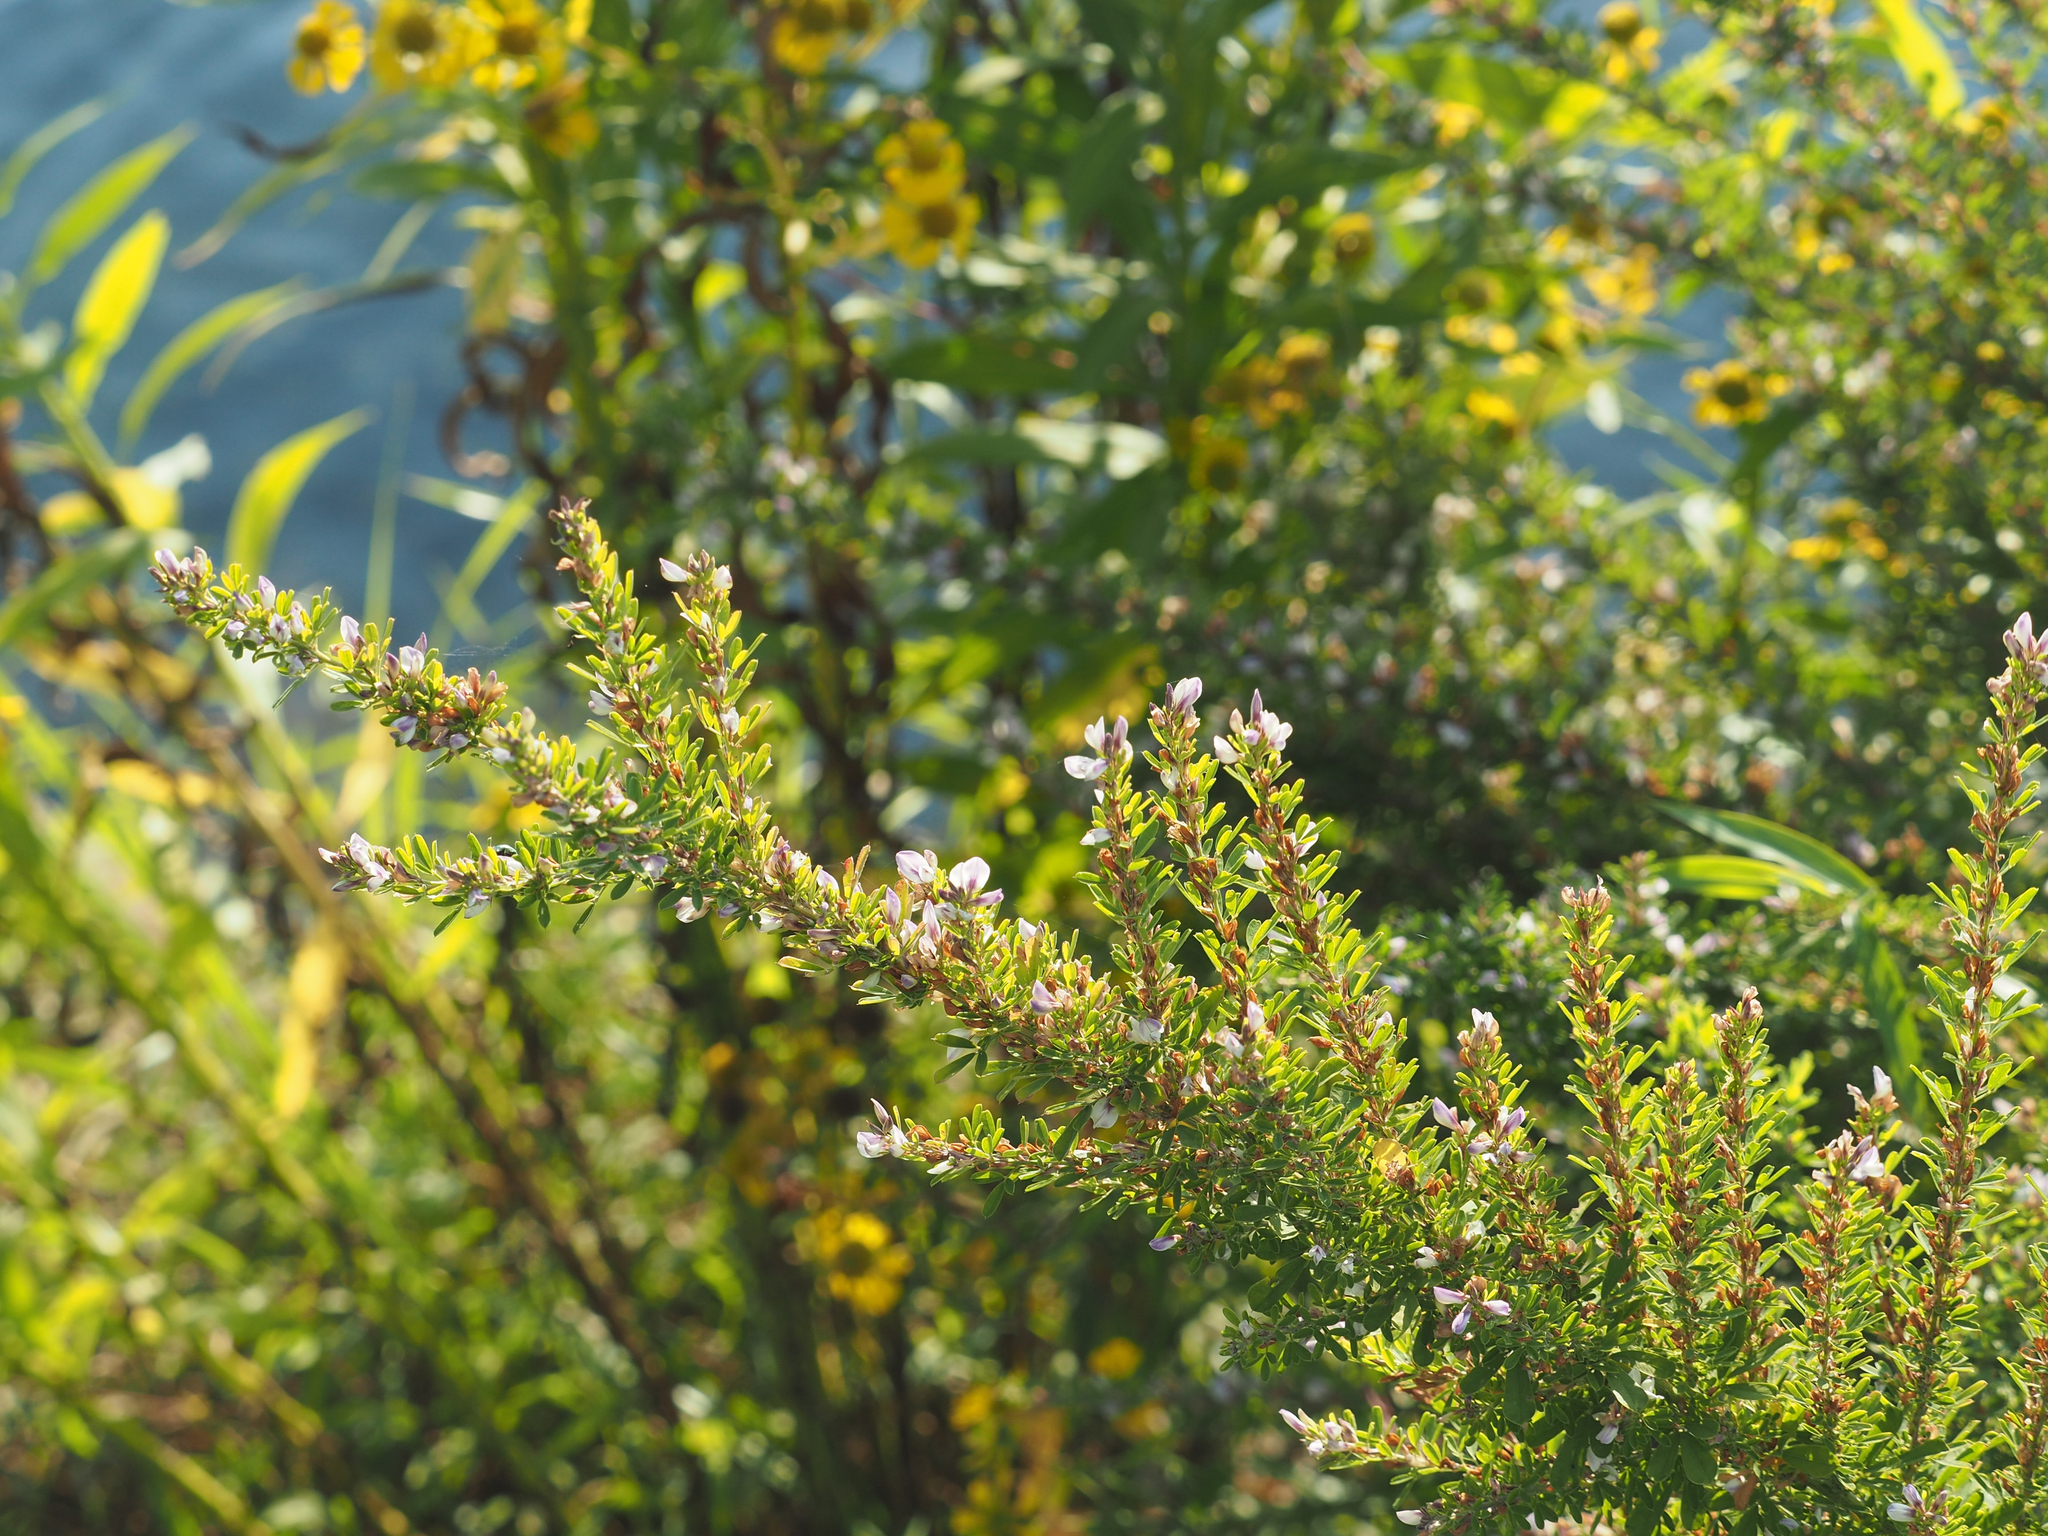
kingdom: Plantae
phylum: Tracheophyta
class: Magnoliopsida
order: Fabales
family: Fabaceae
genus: Lespedeza
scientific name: Lespedeza cuneata
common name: Chinese bush-clover
